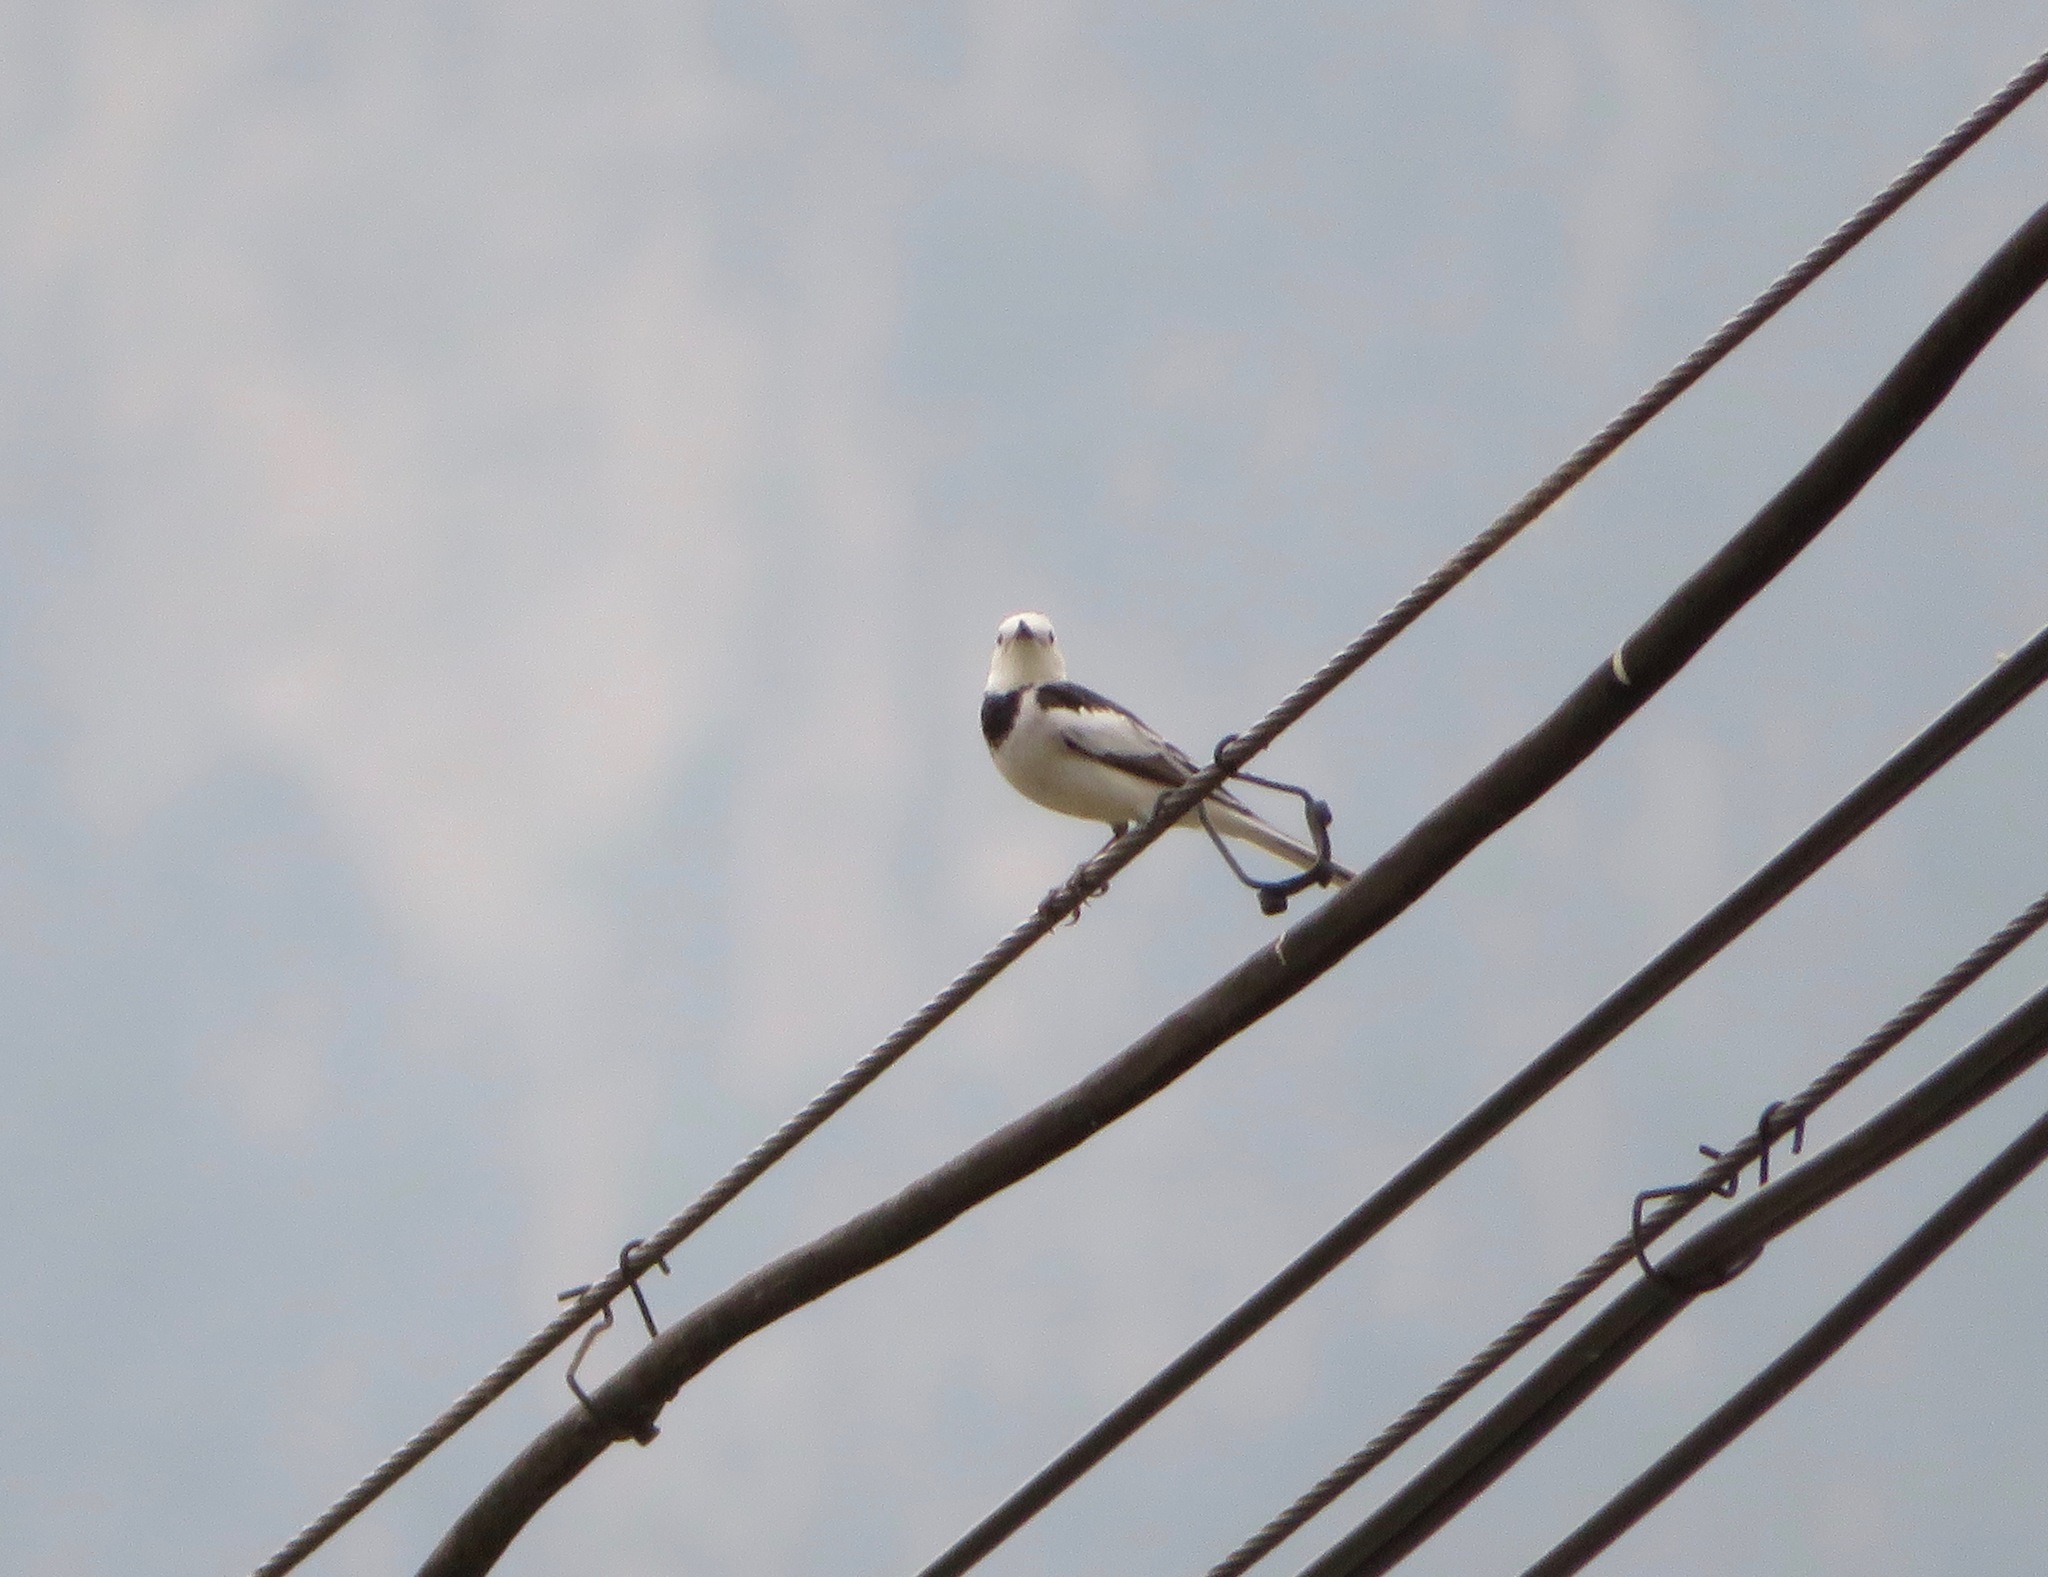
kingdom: Animalia
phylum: Chordata
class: Aves
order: Passeriformes
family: Motacillidae
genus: Motacilla
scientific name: Motacilla alba
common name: White wagtail
